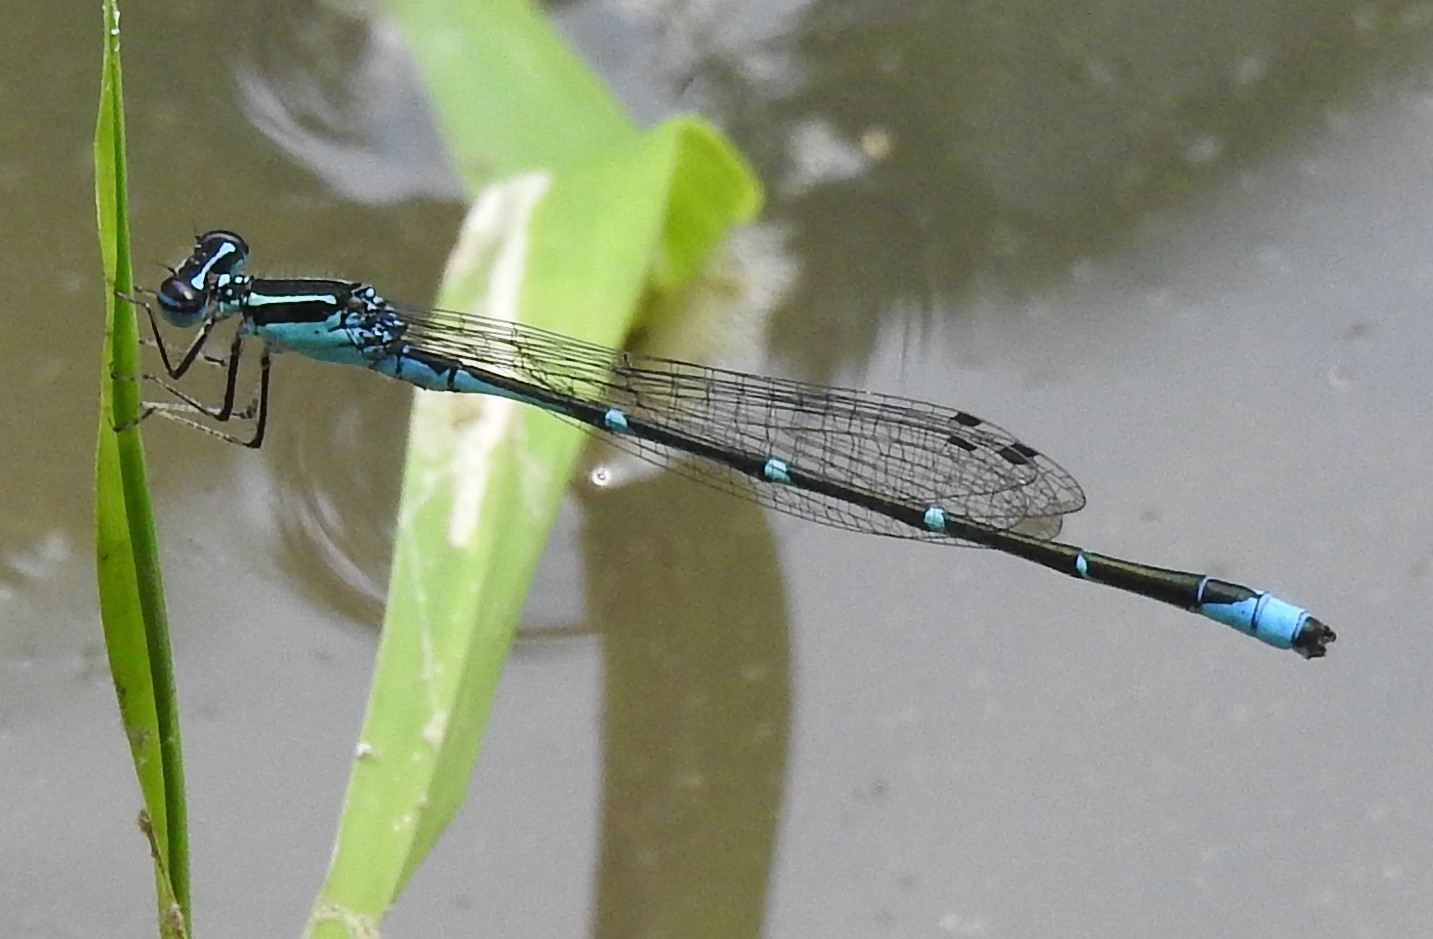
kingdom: Animalia
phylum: Arthropoda
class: Insecta
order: Odonata
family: Coenagrionidae
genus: Enallagma
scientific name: Enallagma exsulans
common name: Stream bluet
